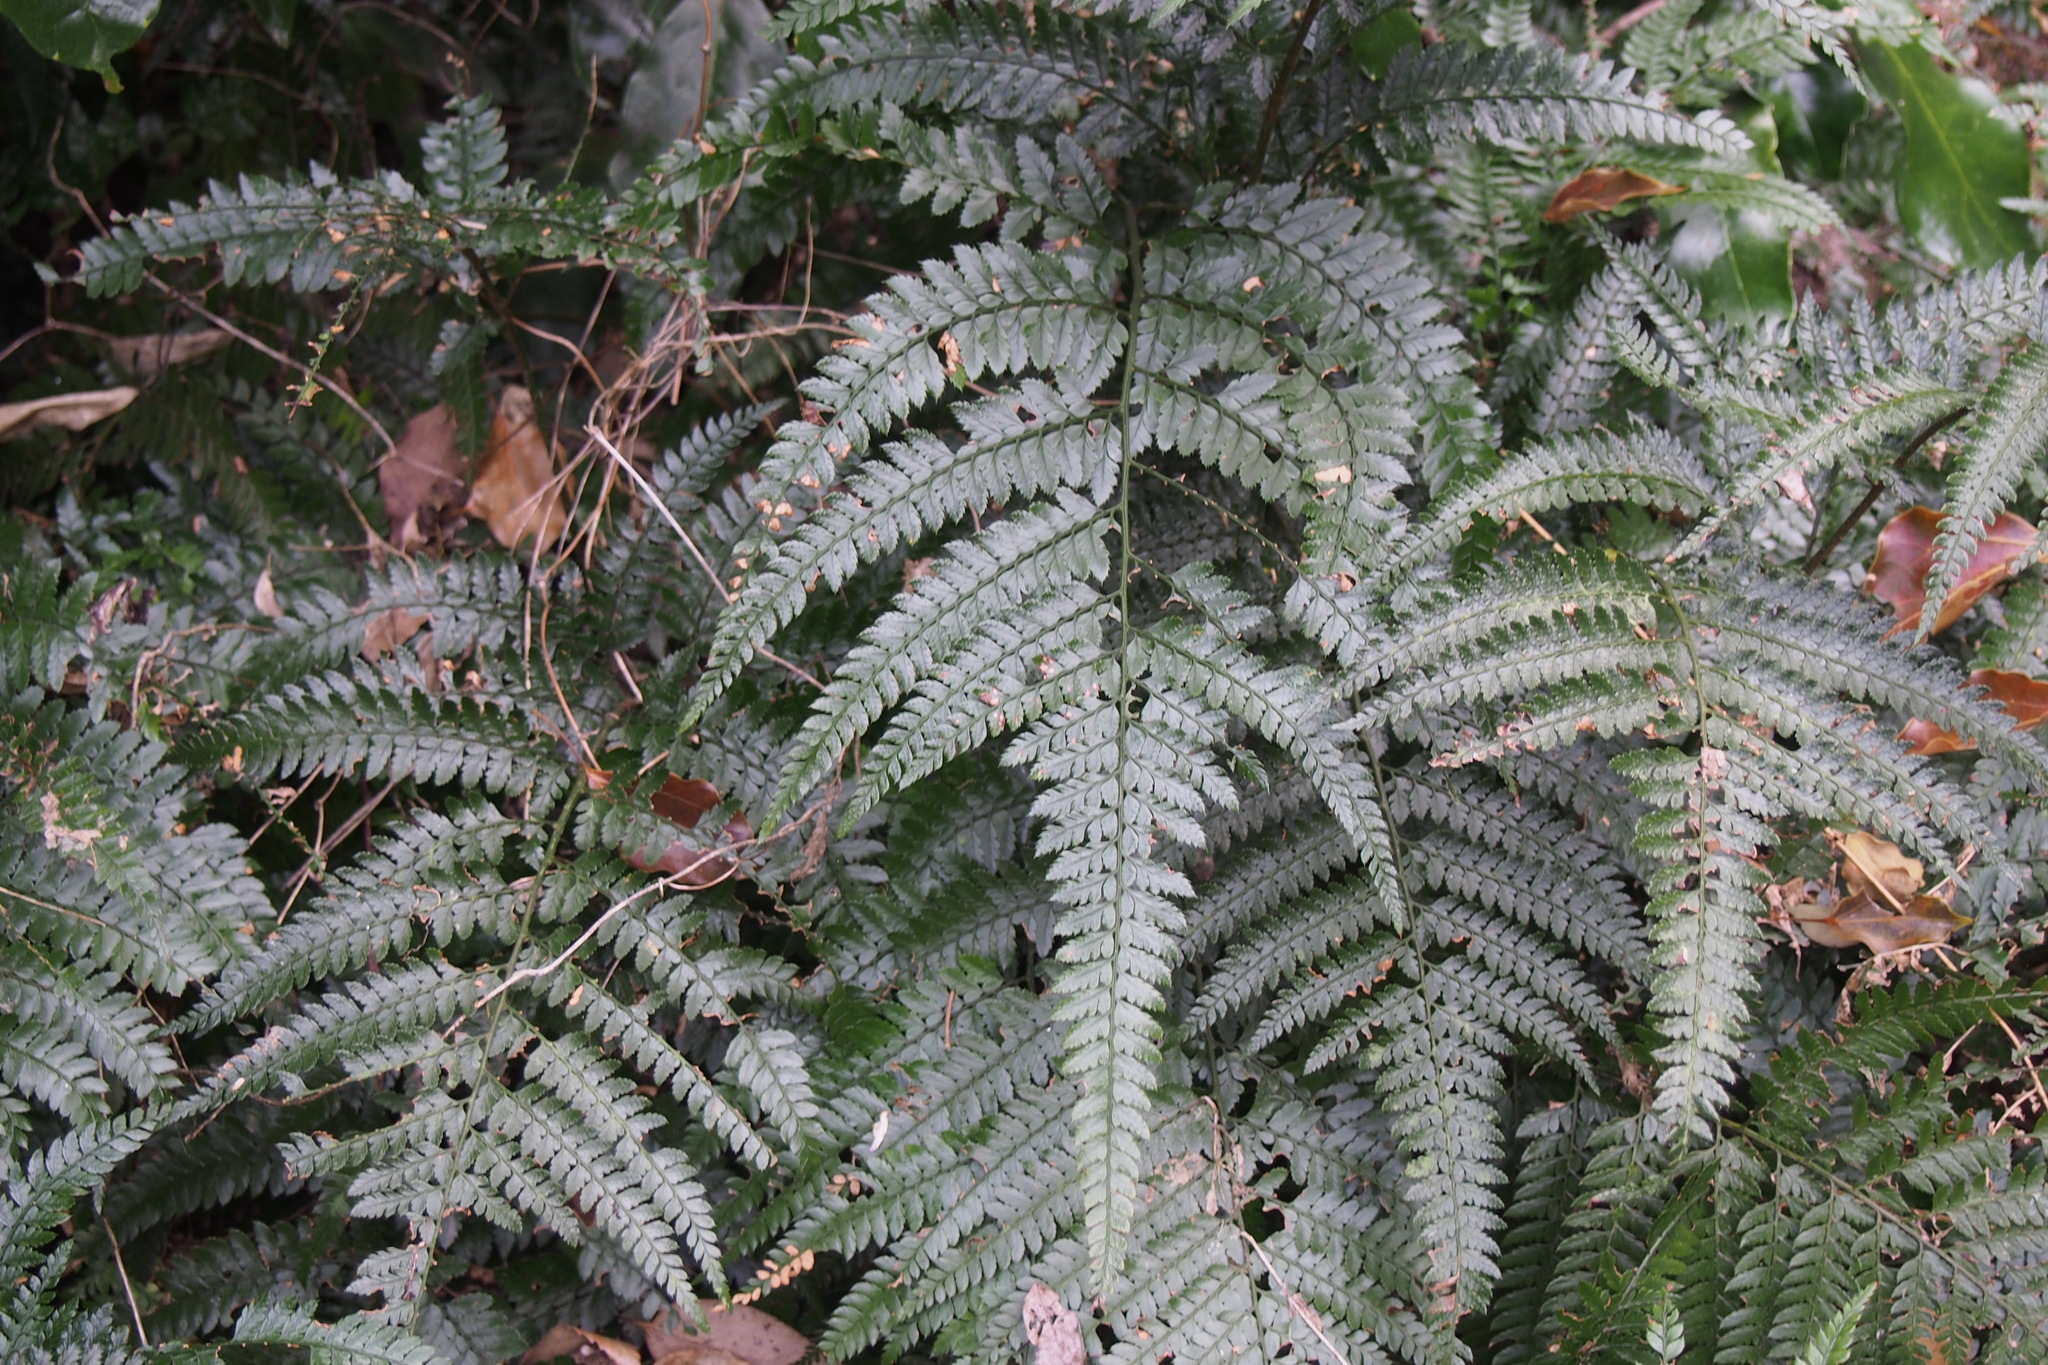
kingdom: Plantae
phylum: Tracheophyta
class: Polypodiopsida
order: Polypodiales
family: Dryopteridaceae
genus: Arachniodes
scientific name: Arachniodes aristata
